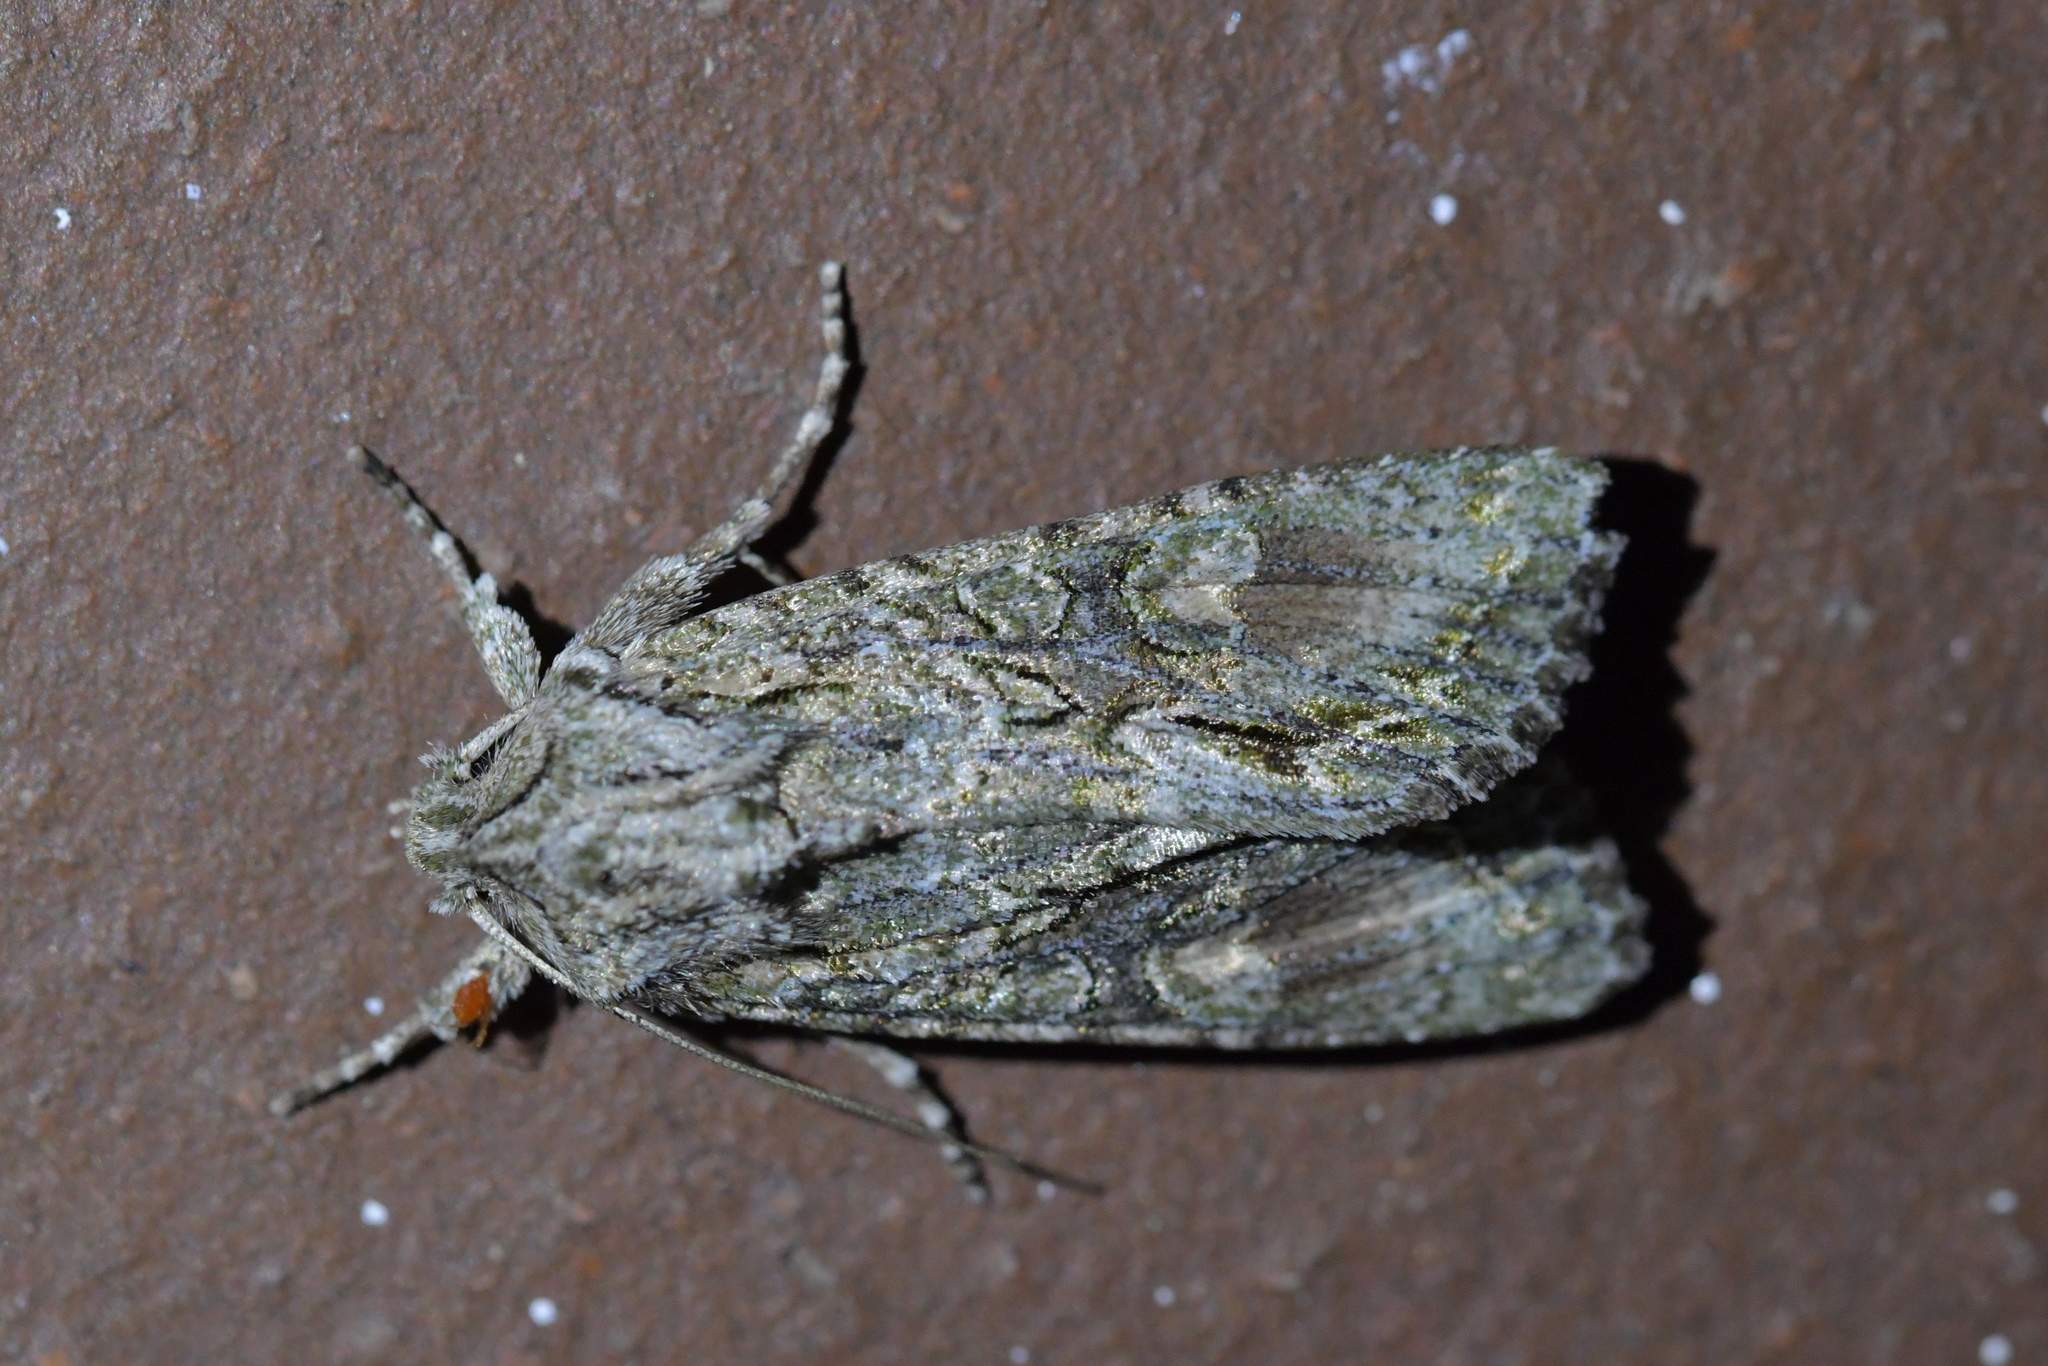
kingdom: Animalia
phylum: Arthropoda
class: Insecta
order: Lepidoptera
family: Noctuidae
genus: Ichneutica
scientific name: Ichneutica mutans
